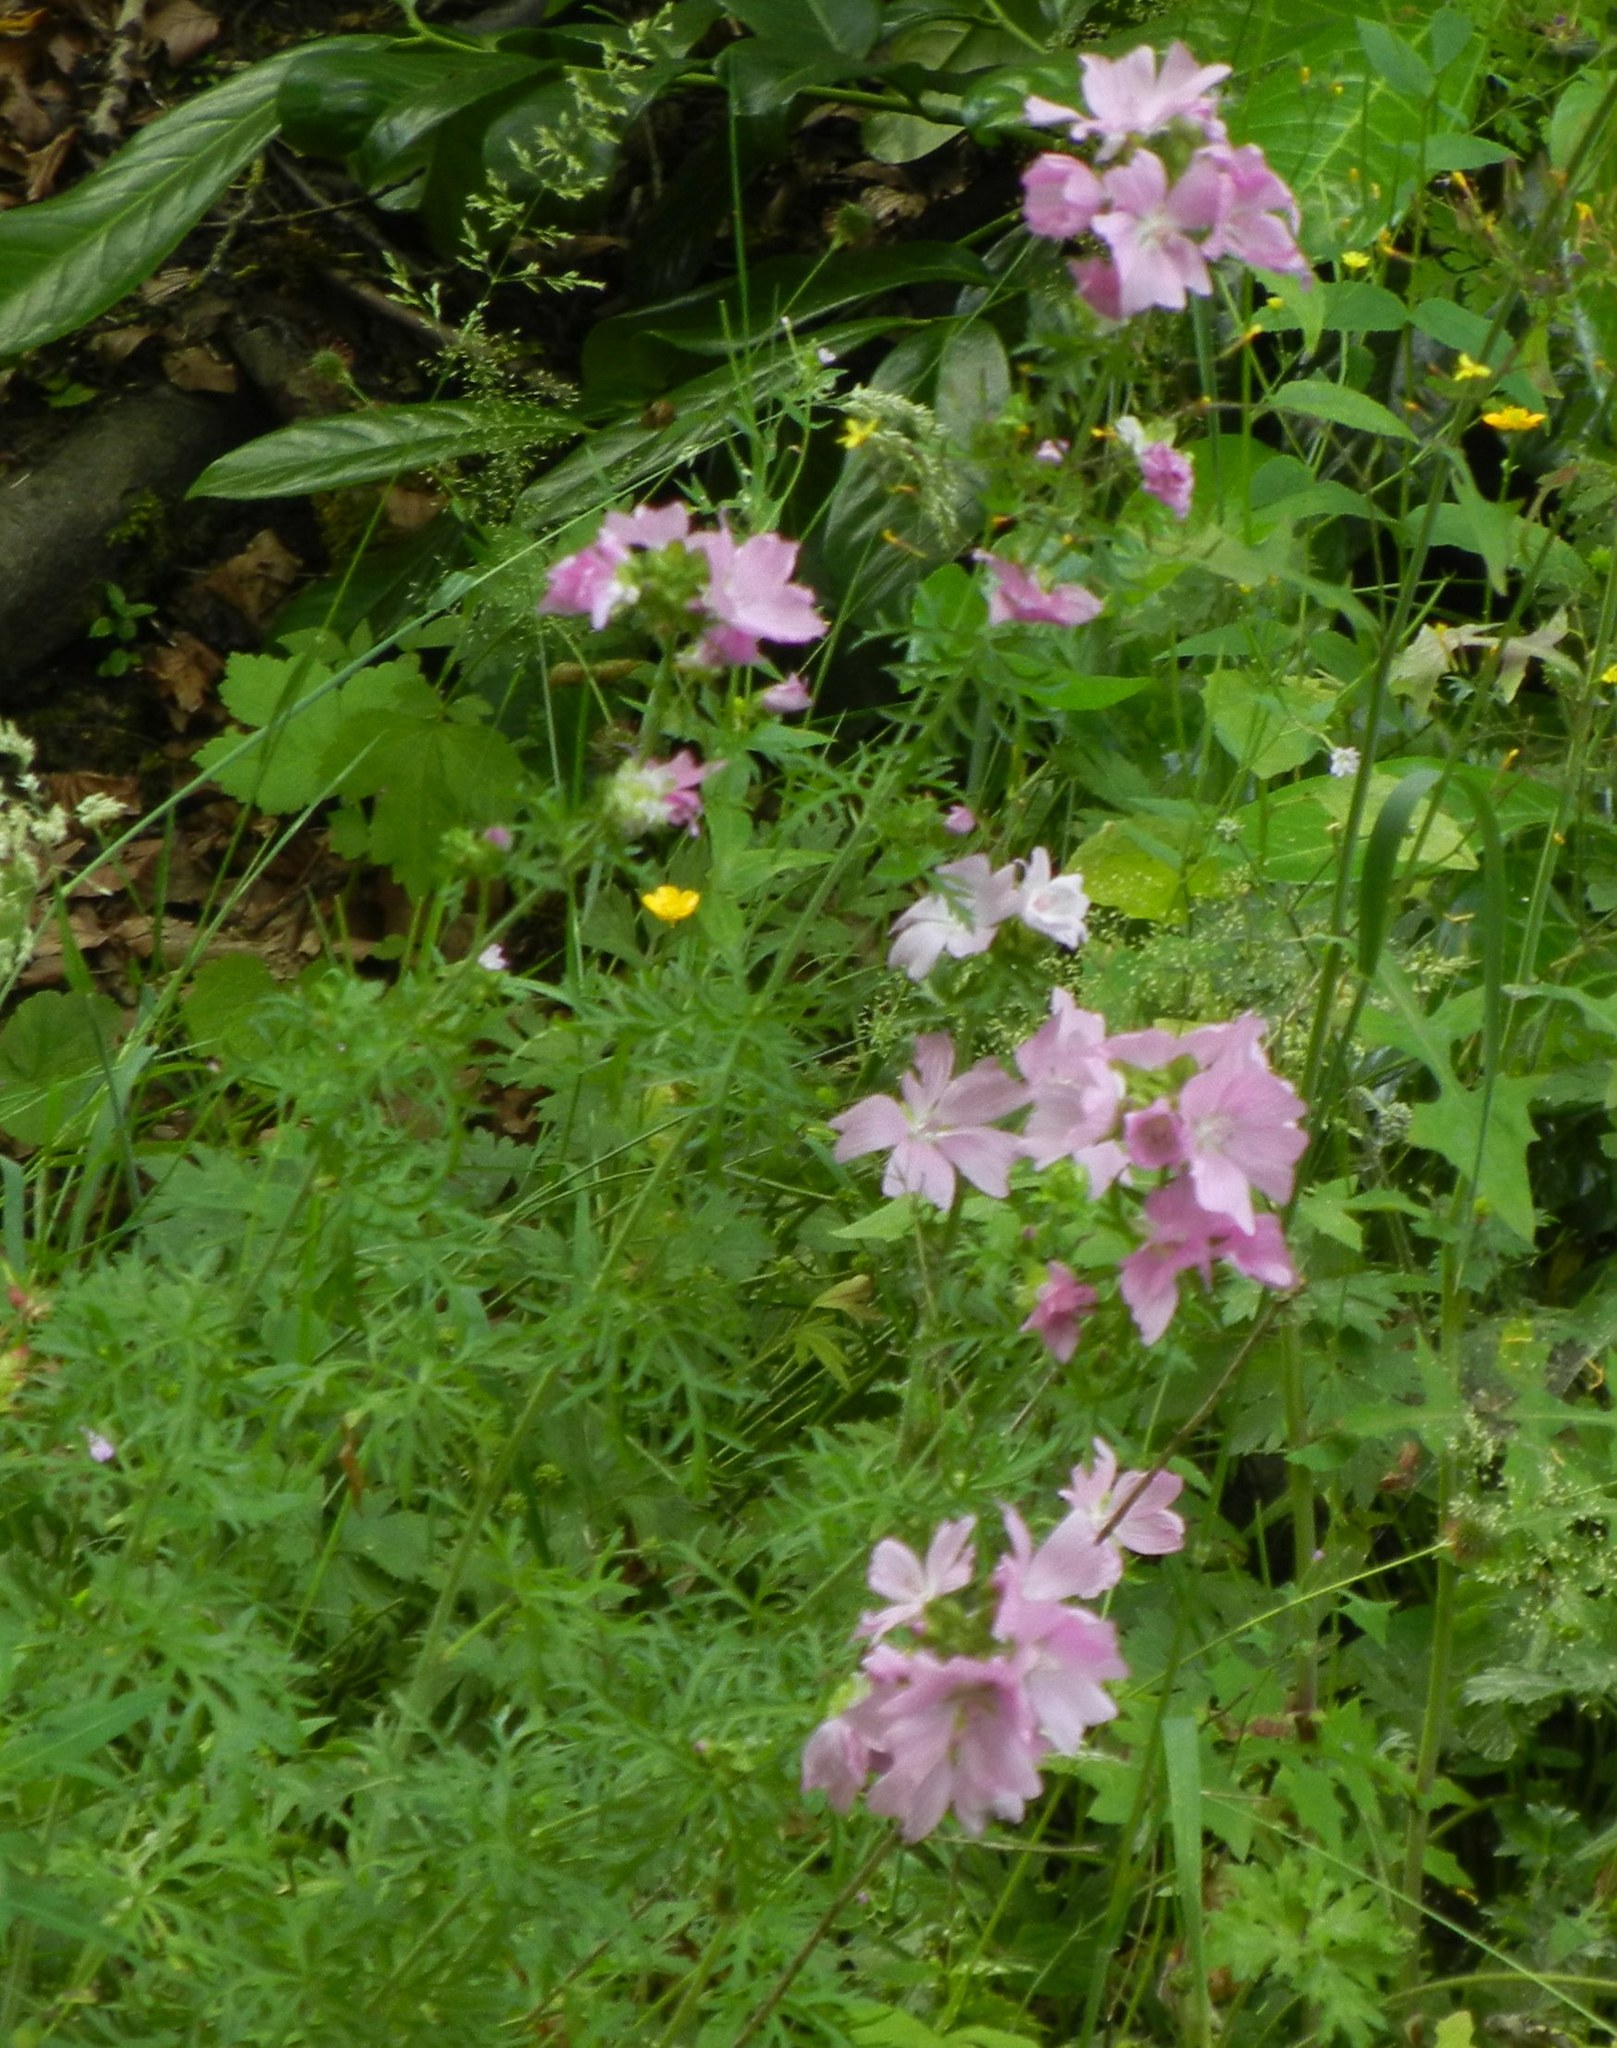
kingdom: Plantae
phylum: Tracheophyta
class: Magnoliopsida
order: Malvales
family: Malvaceae
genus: Malva
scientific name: Malva moschata
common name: Musk mallow
